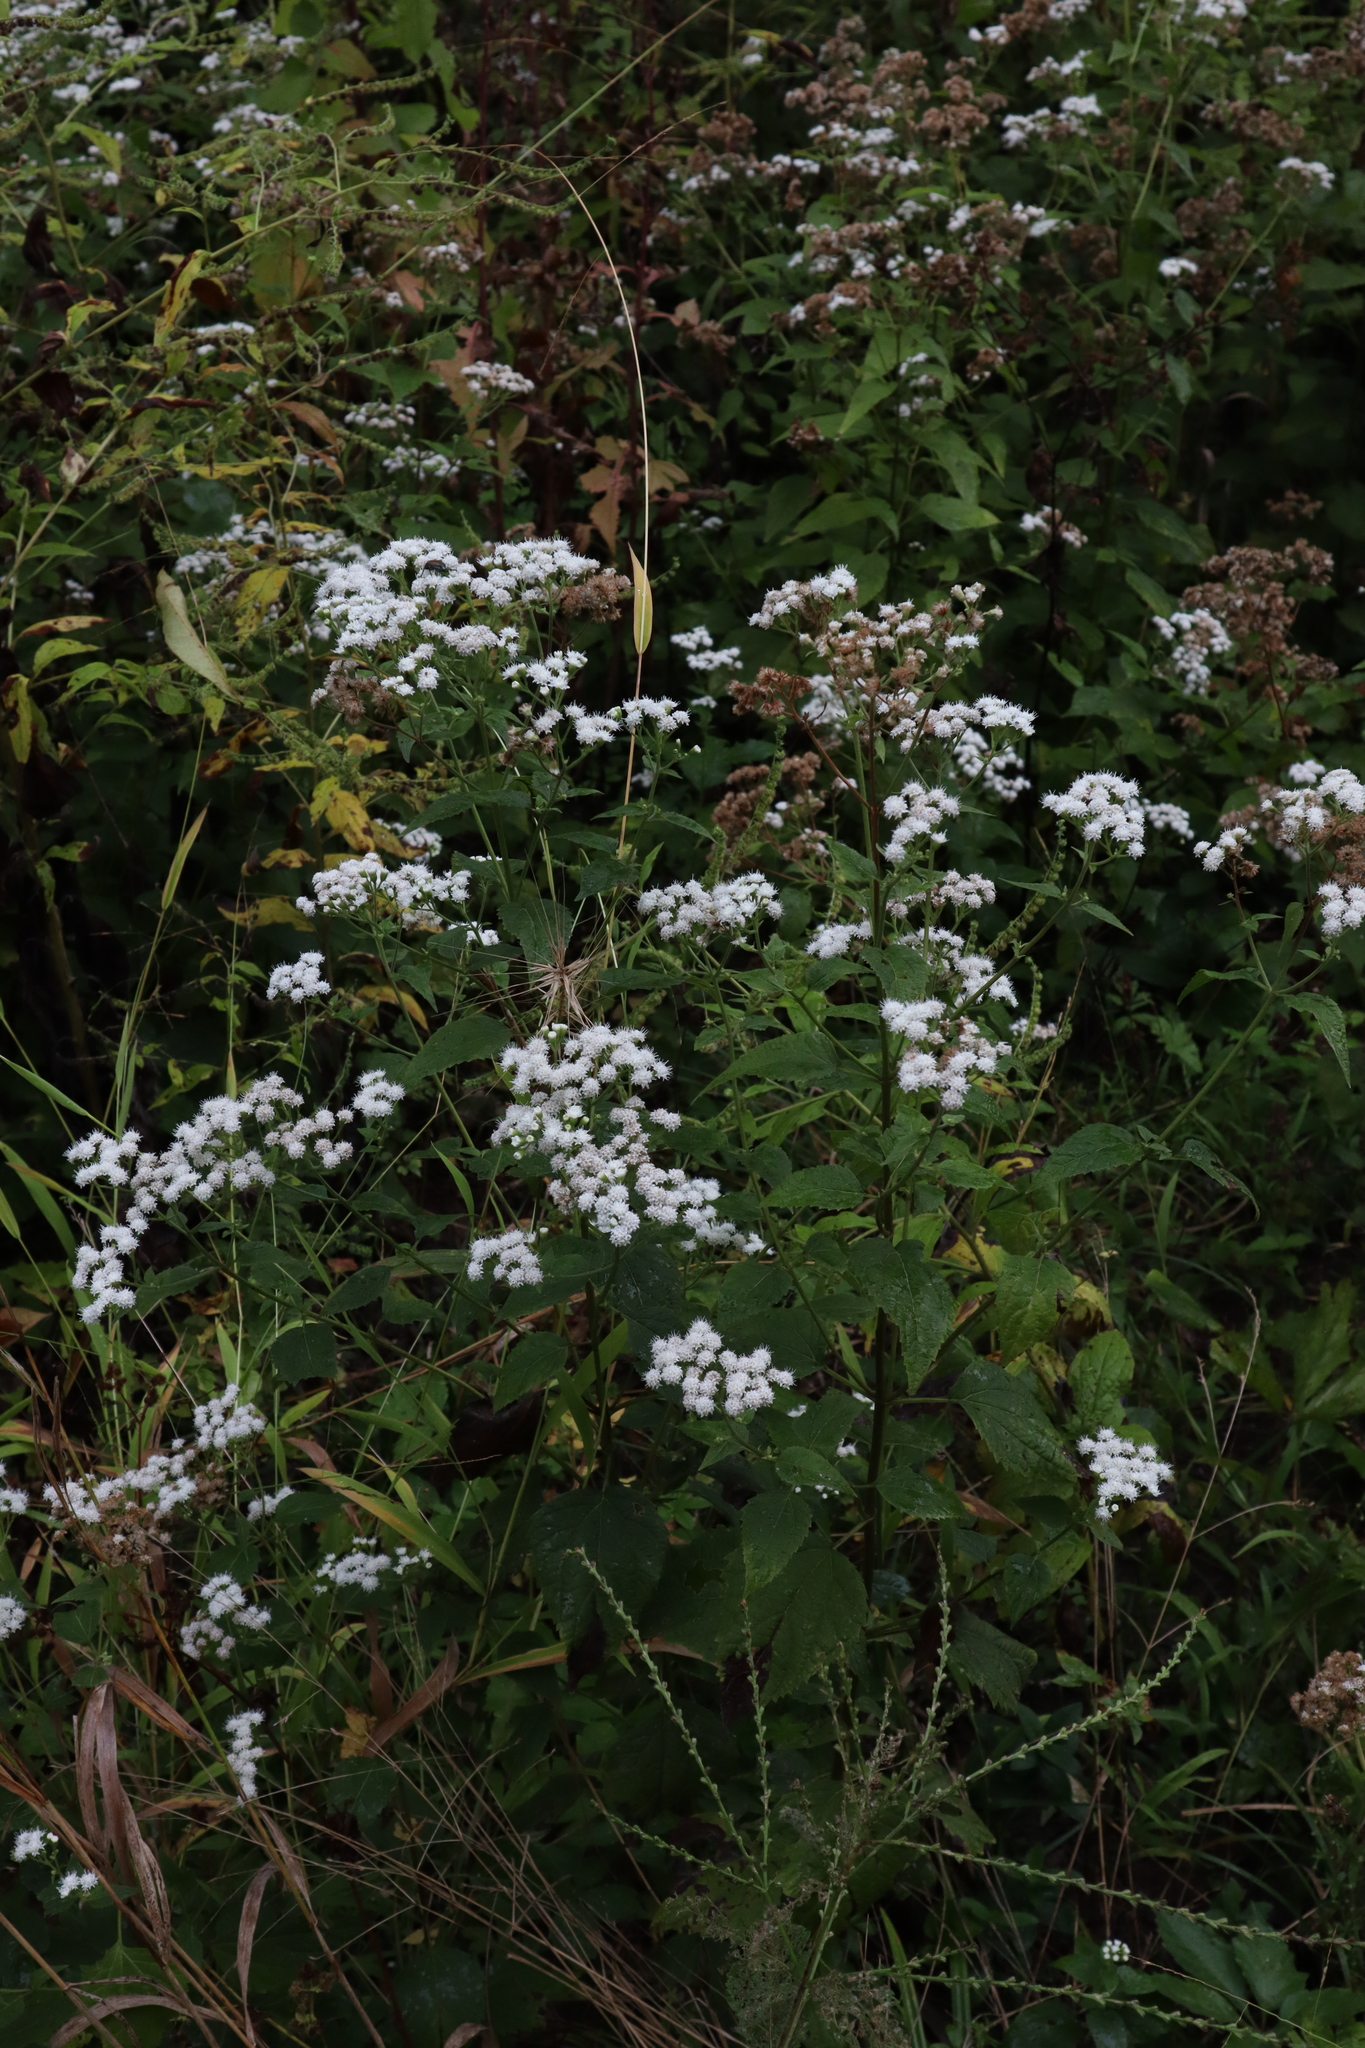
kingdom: Plantae
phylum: Tracheophyta
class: Magnoliopsida
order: Asterales
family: Asteraceae
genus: Ageratina
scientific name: Ageratina altissima
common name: White snakeroot
